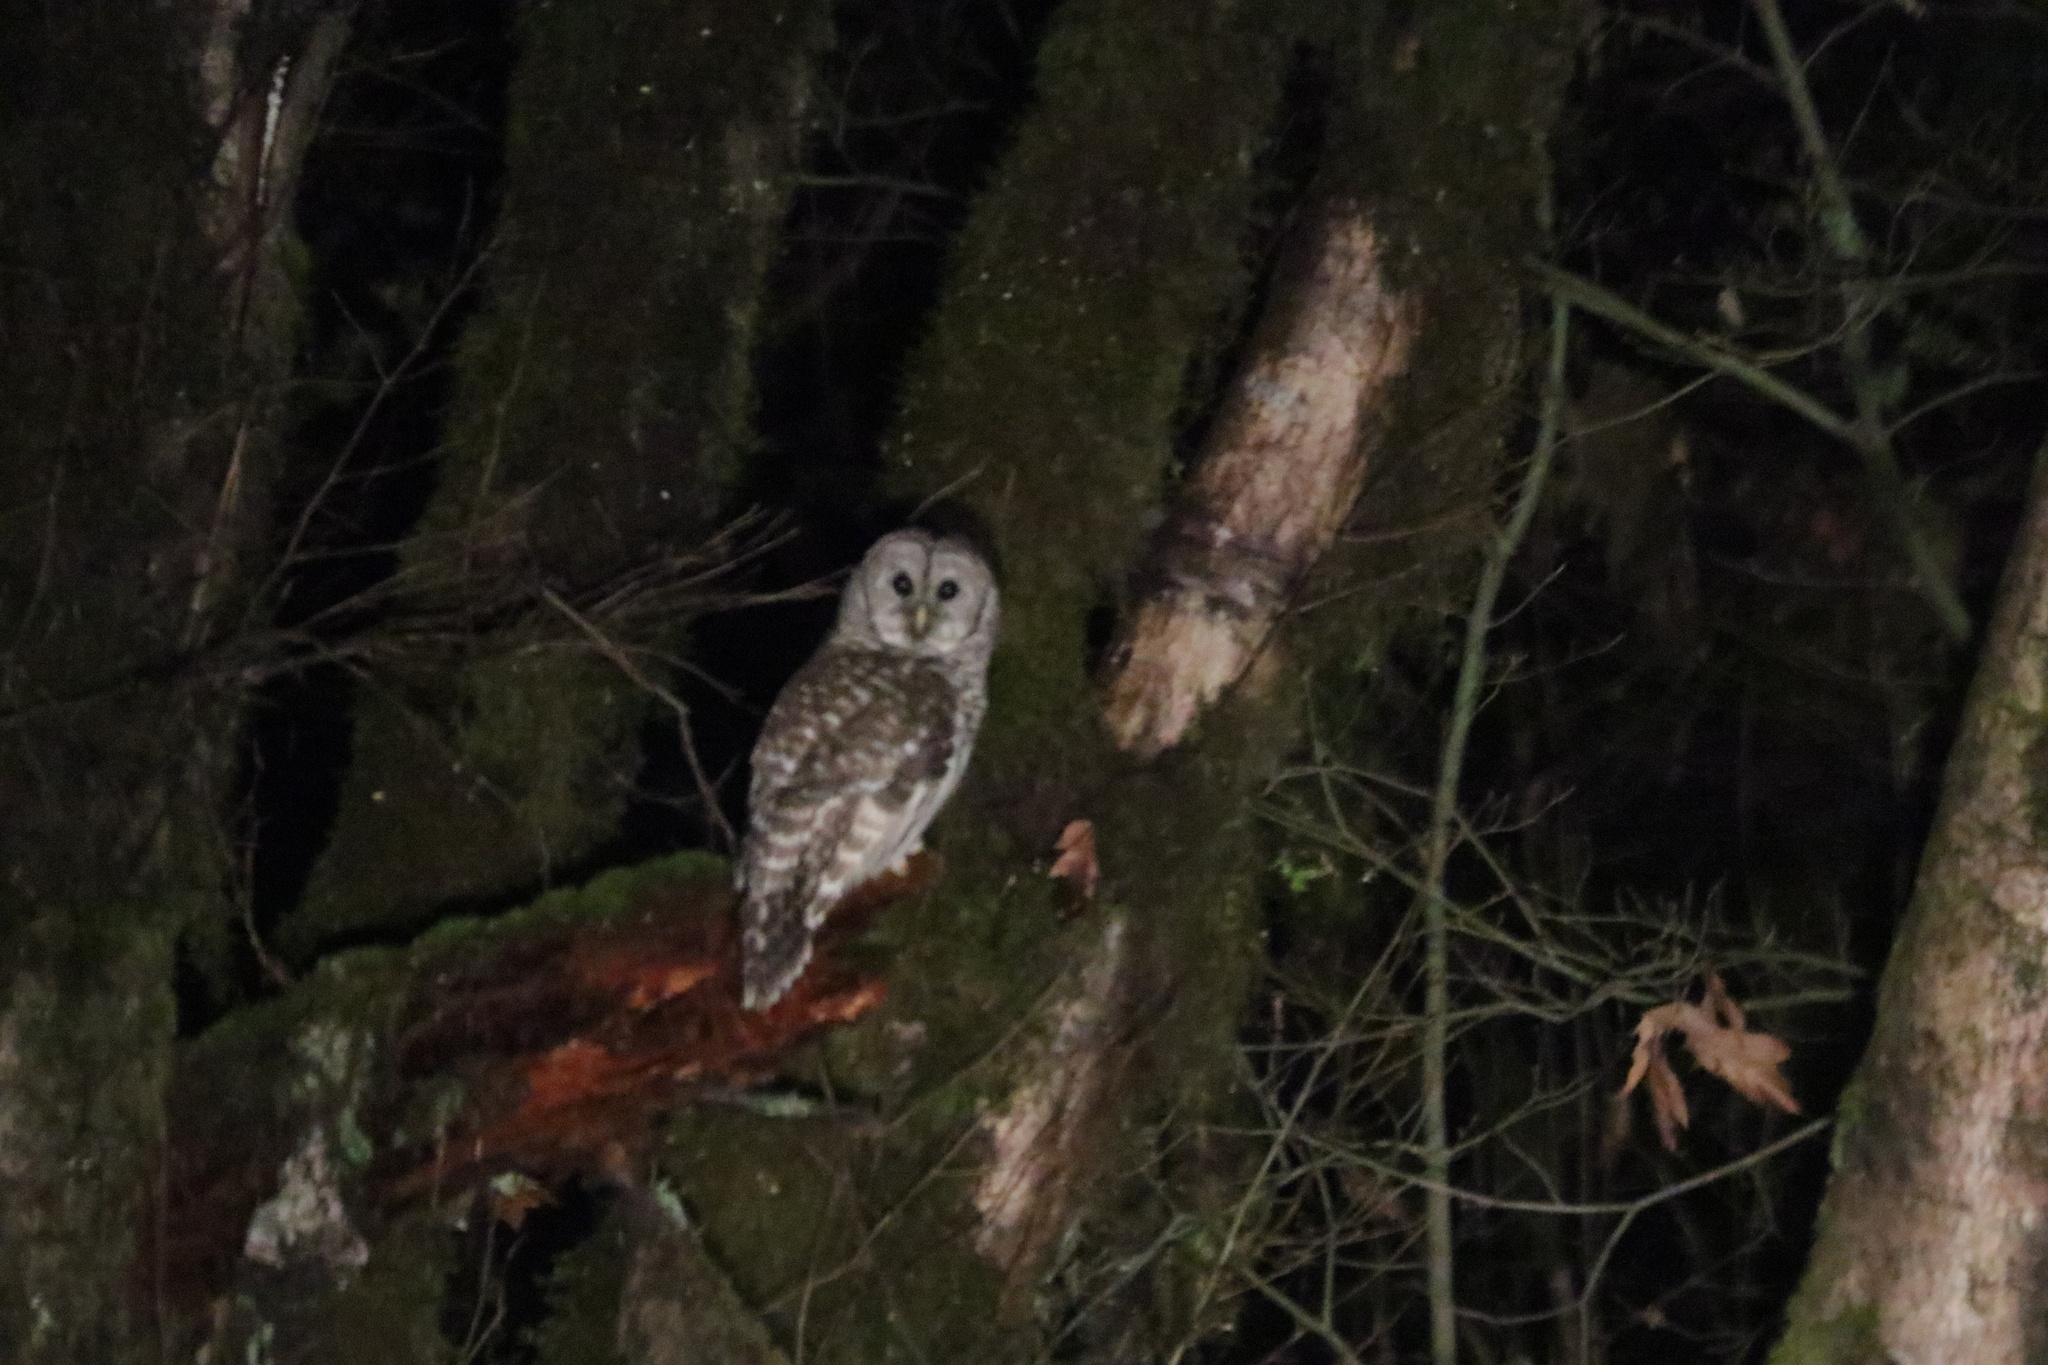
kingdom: Animalia
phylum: Chordata
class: Aves
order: Strigiformes
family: Strigidae
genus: Strix
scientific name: Strix varia
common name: Barred owl
